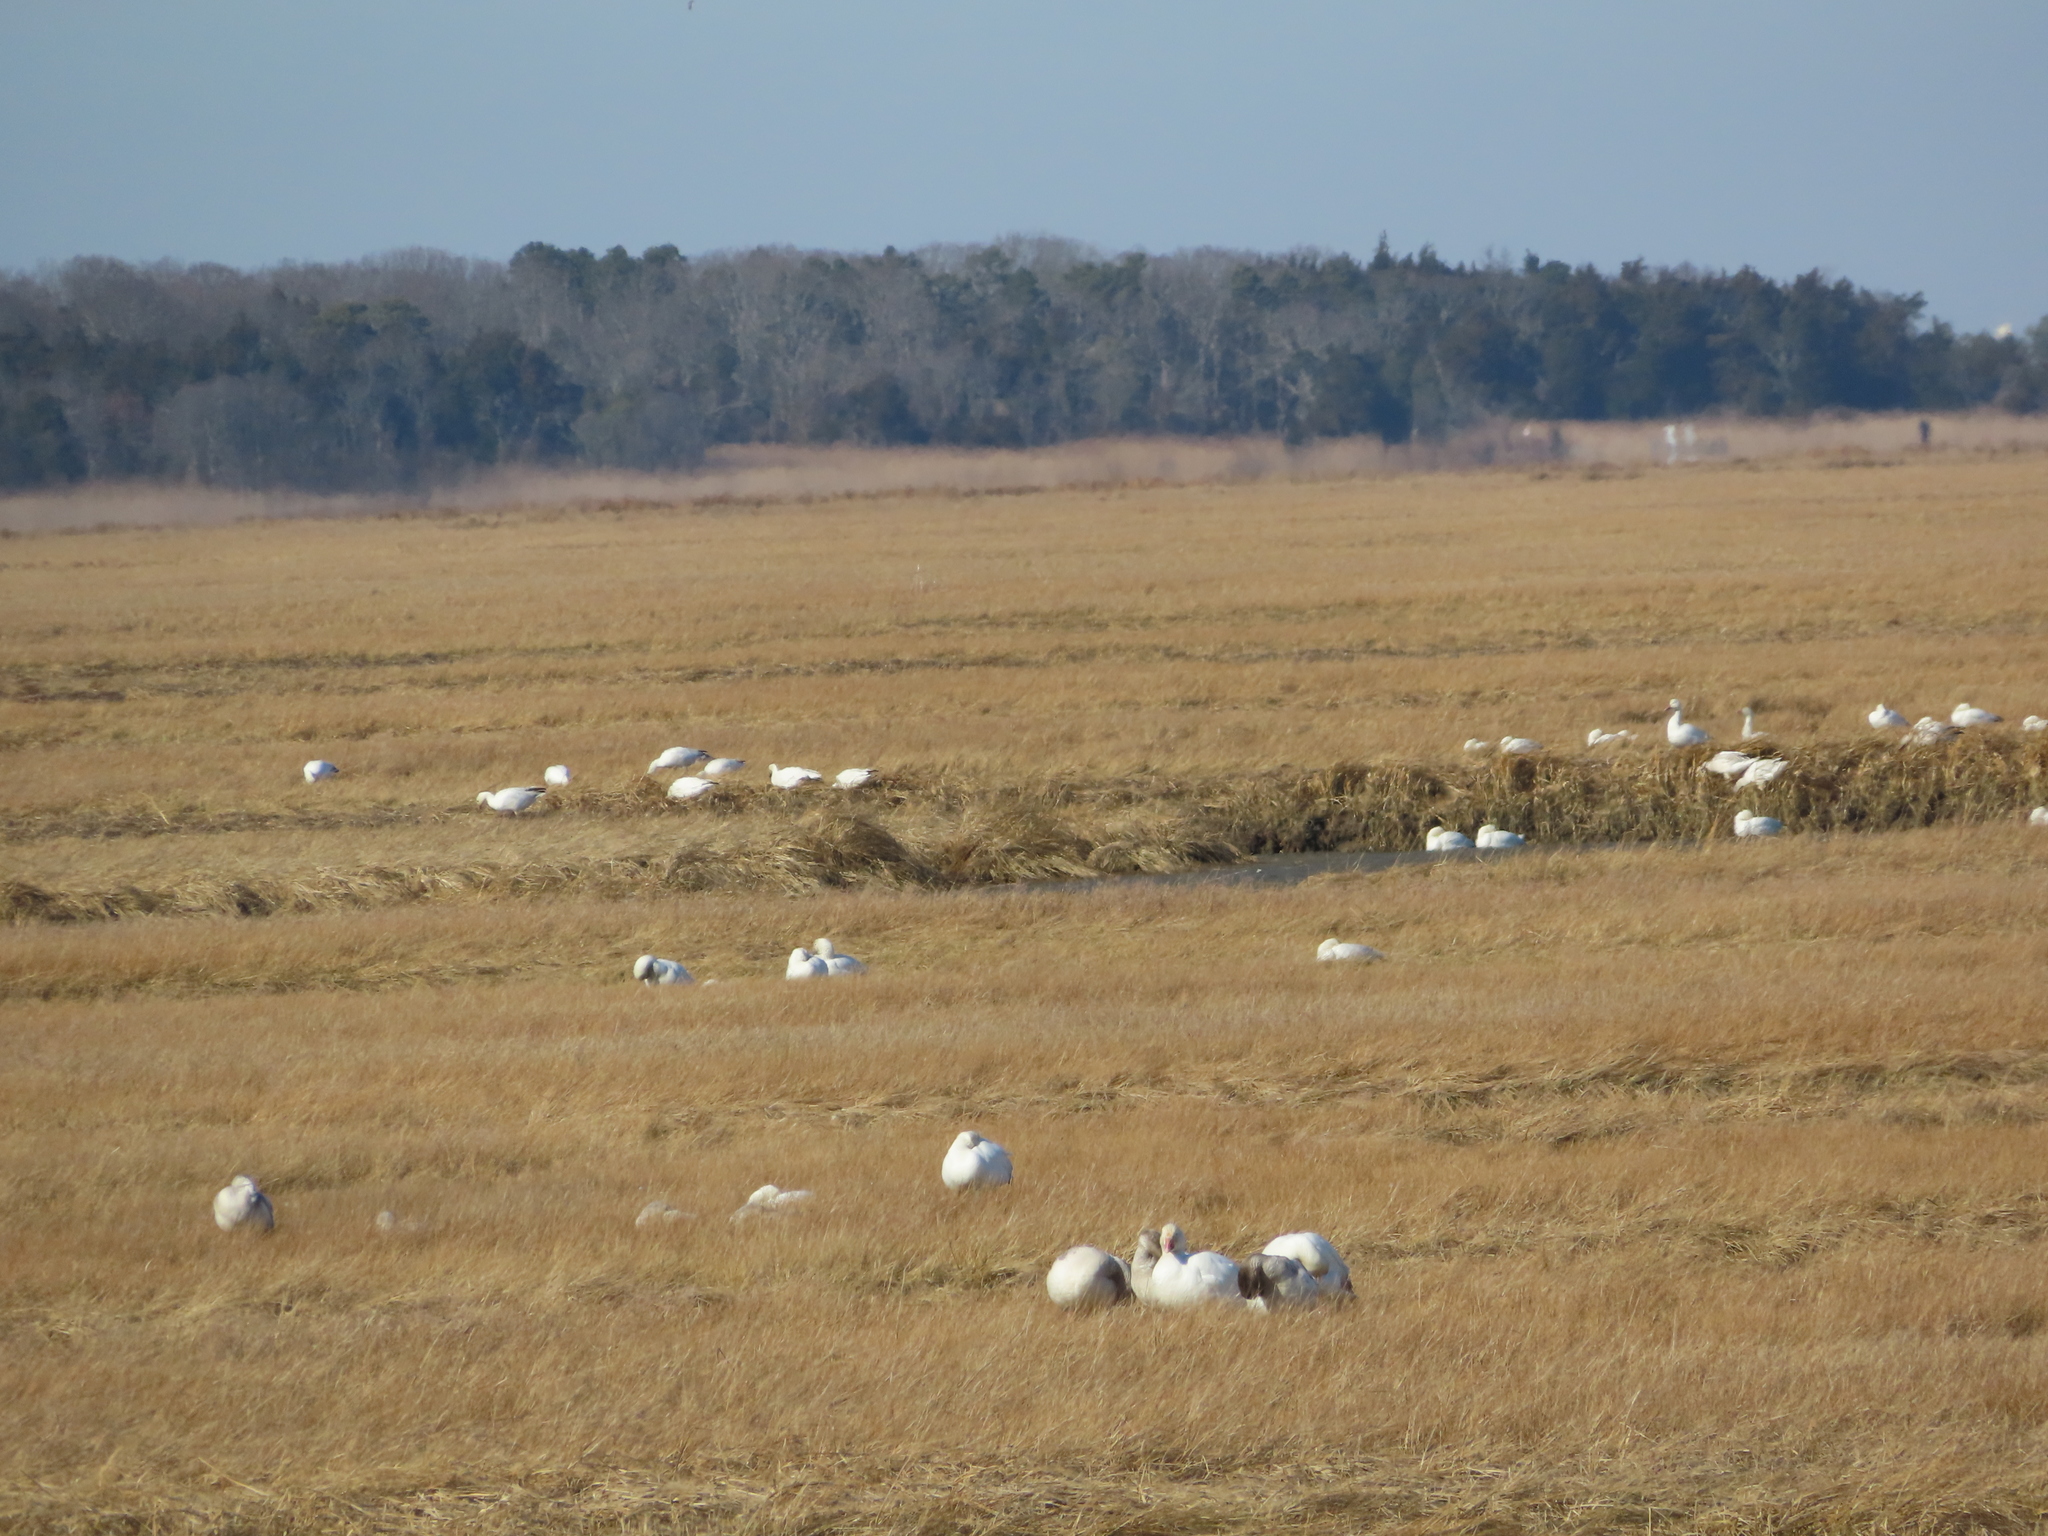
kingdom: Animalia
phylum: Chordata
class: Aves
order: Anseriformes
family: Anatidae
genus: Anser
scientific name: Anser caerulescens
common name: Snow goose
